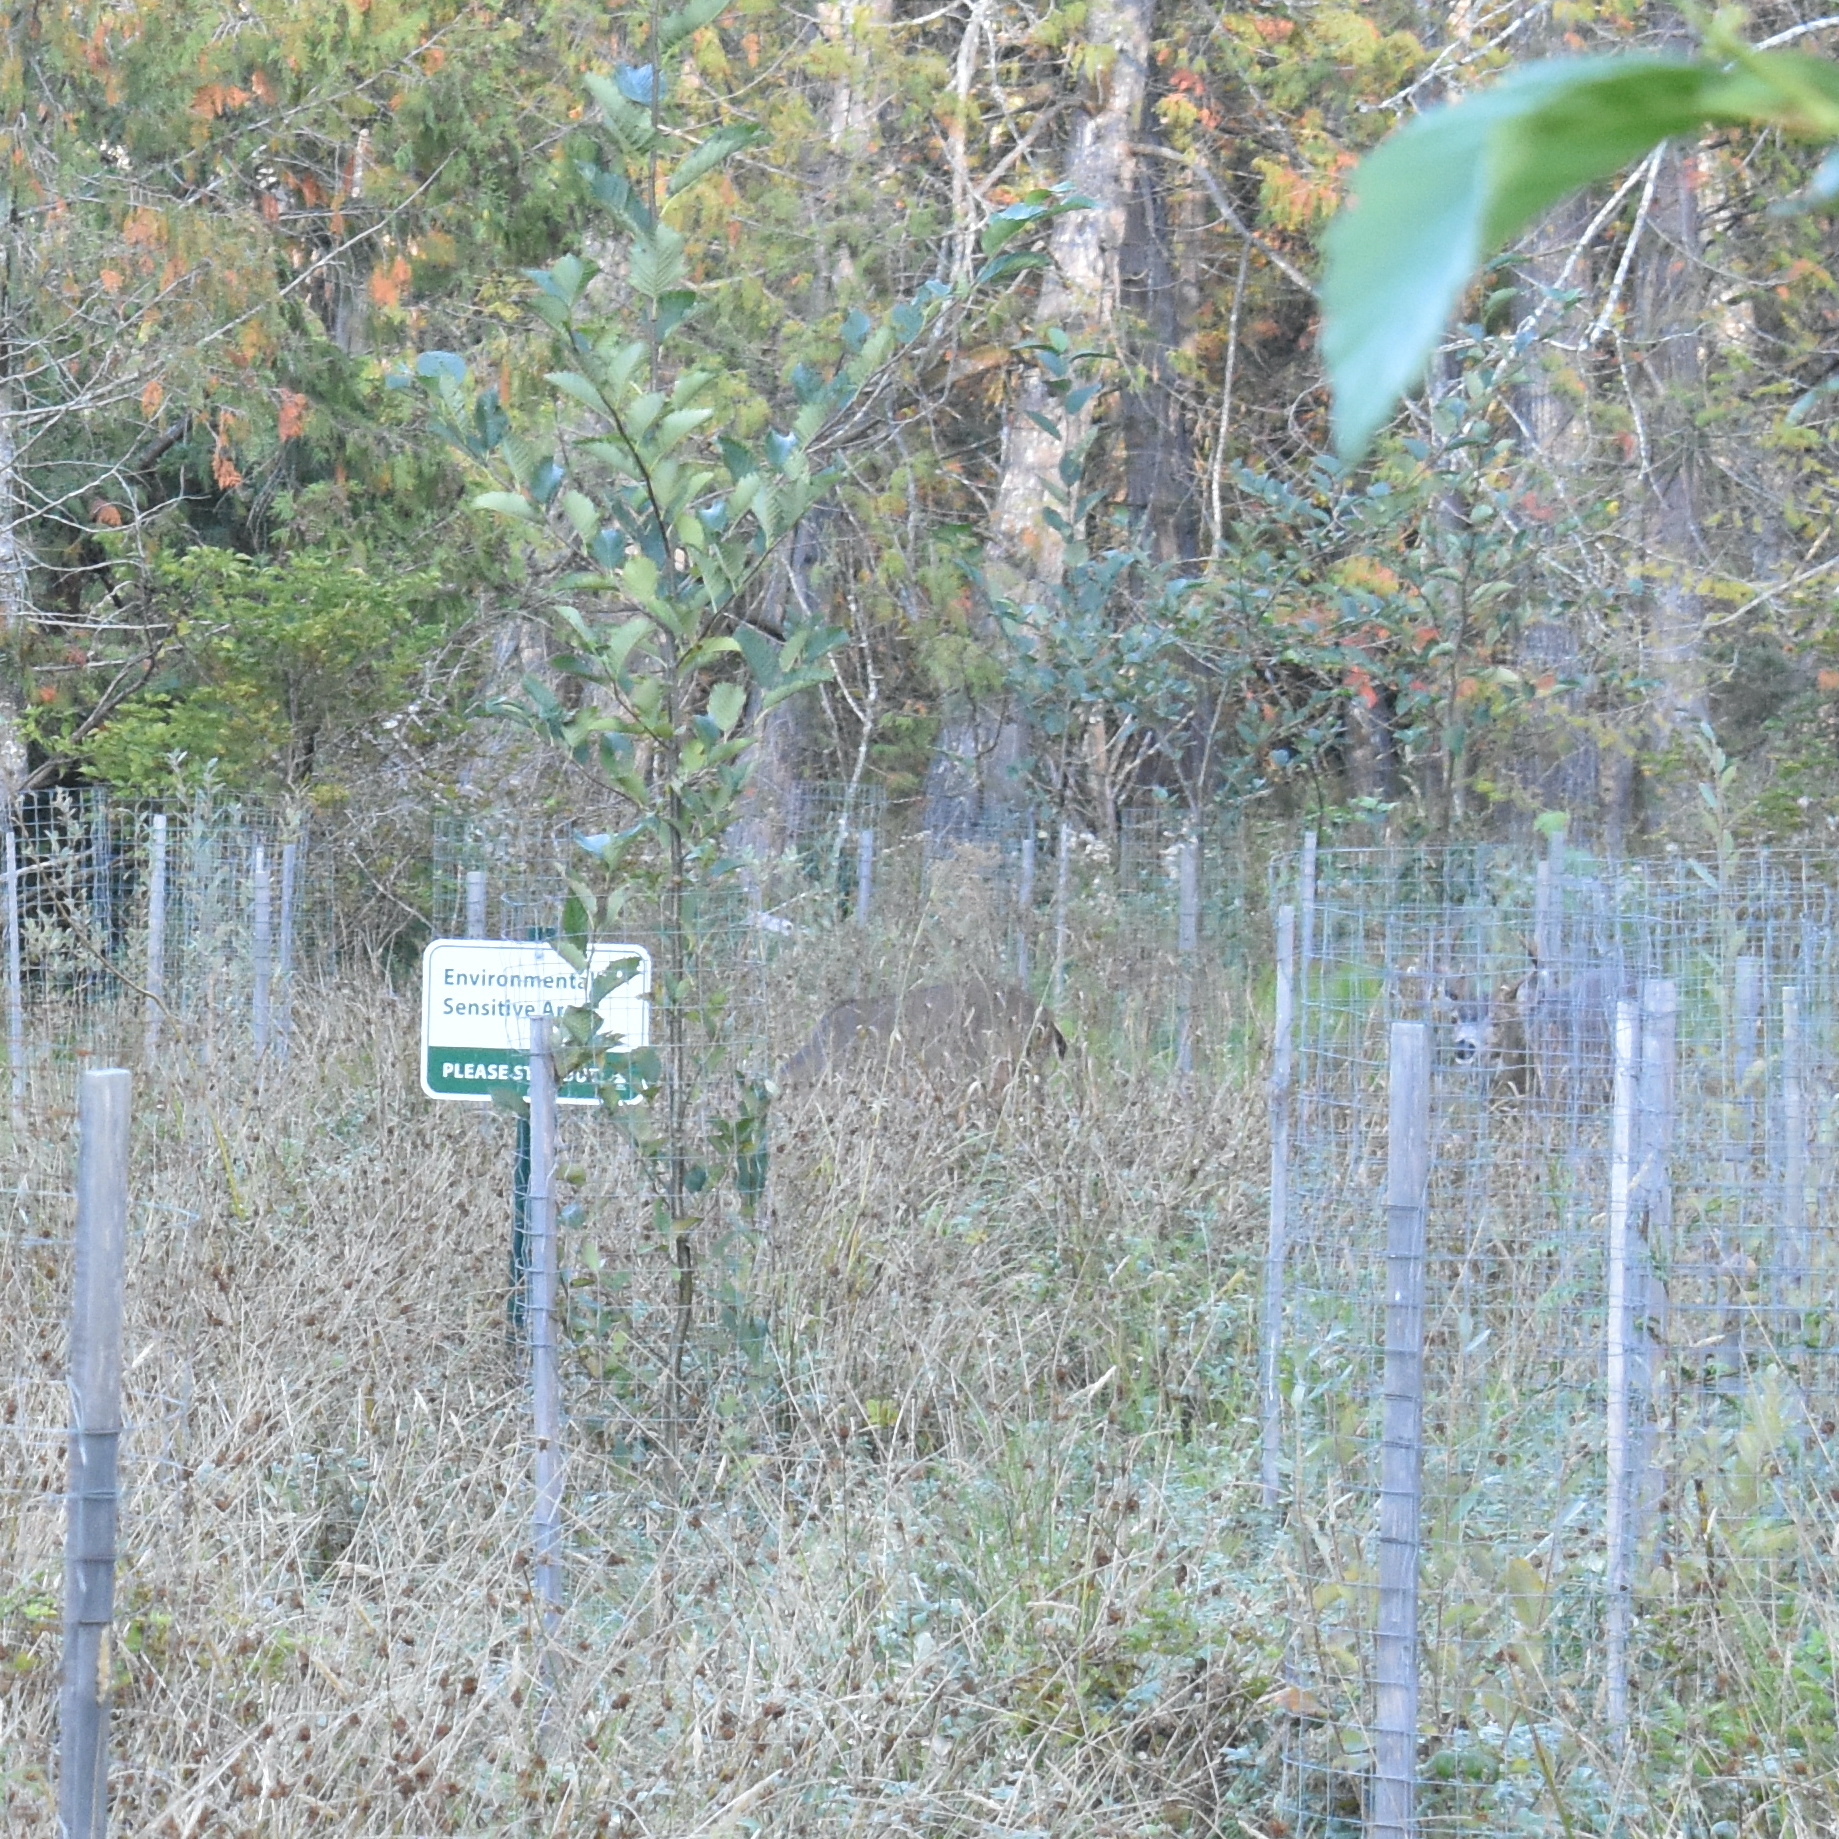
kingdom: Animalia
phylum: Chordata
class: Mammalia
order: Artiodactyla
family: Cervidae
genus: Odocoileus
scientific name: Odocoileus hemionus
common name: Mule deer
